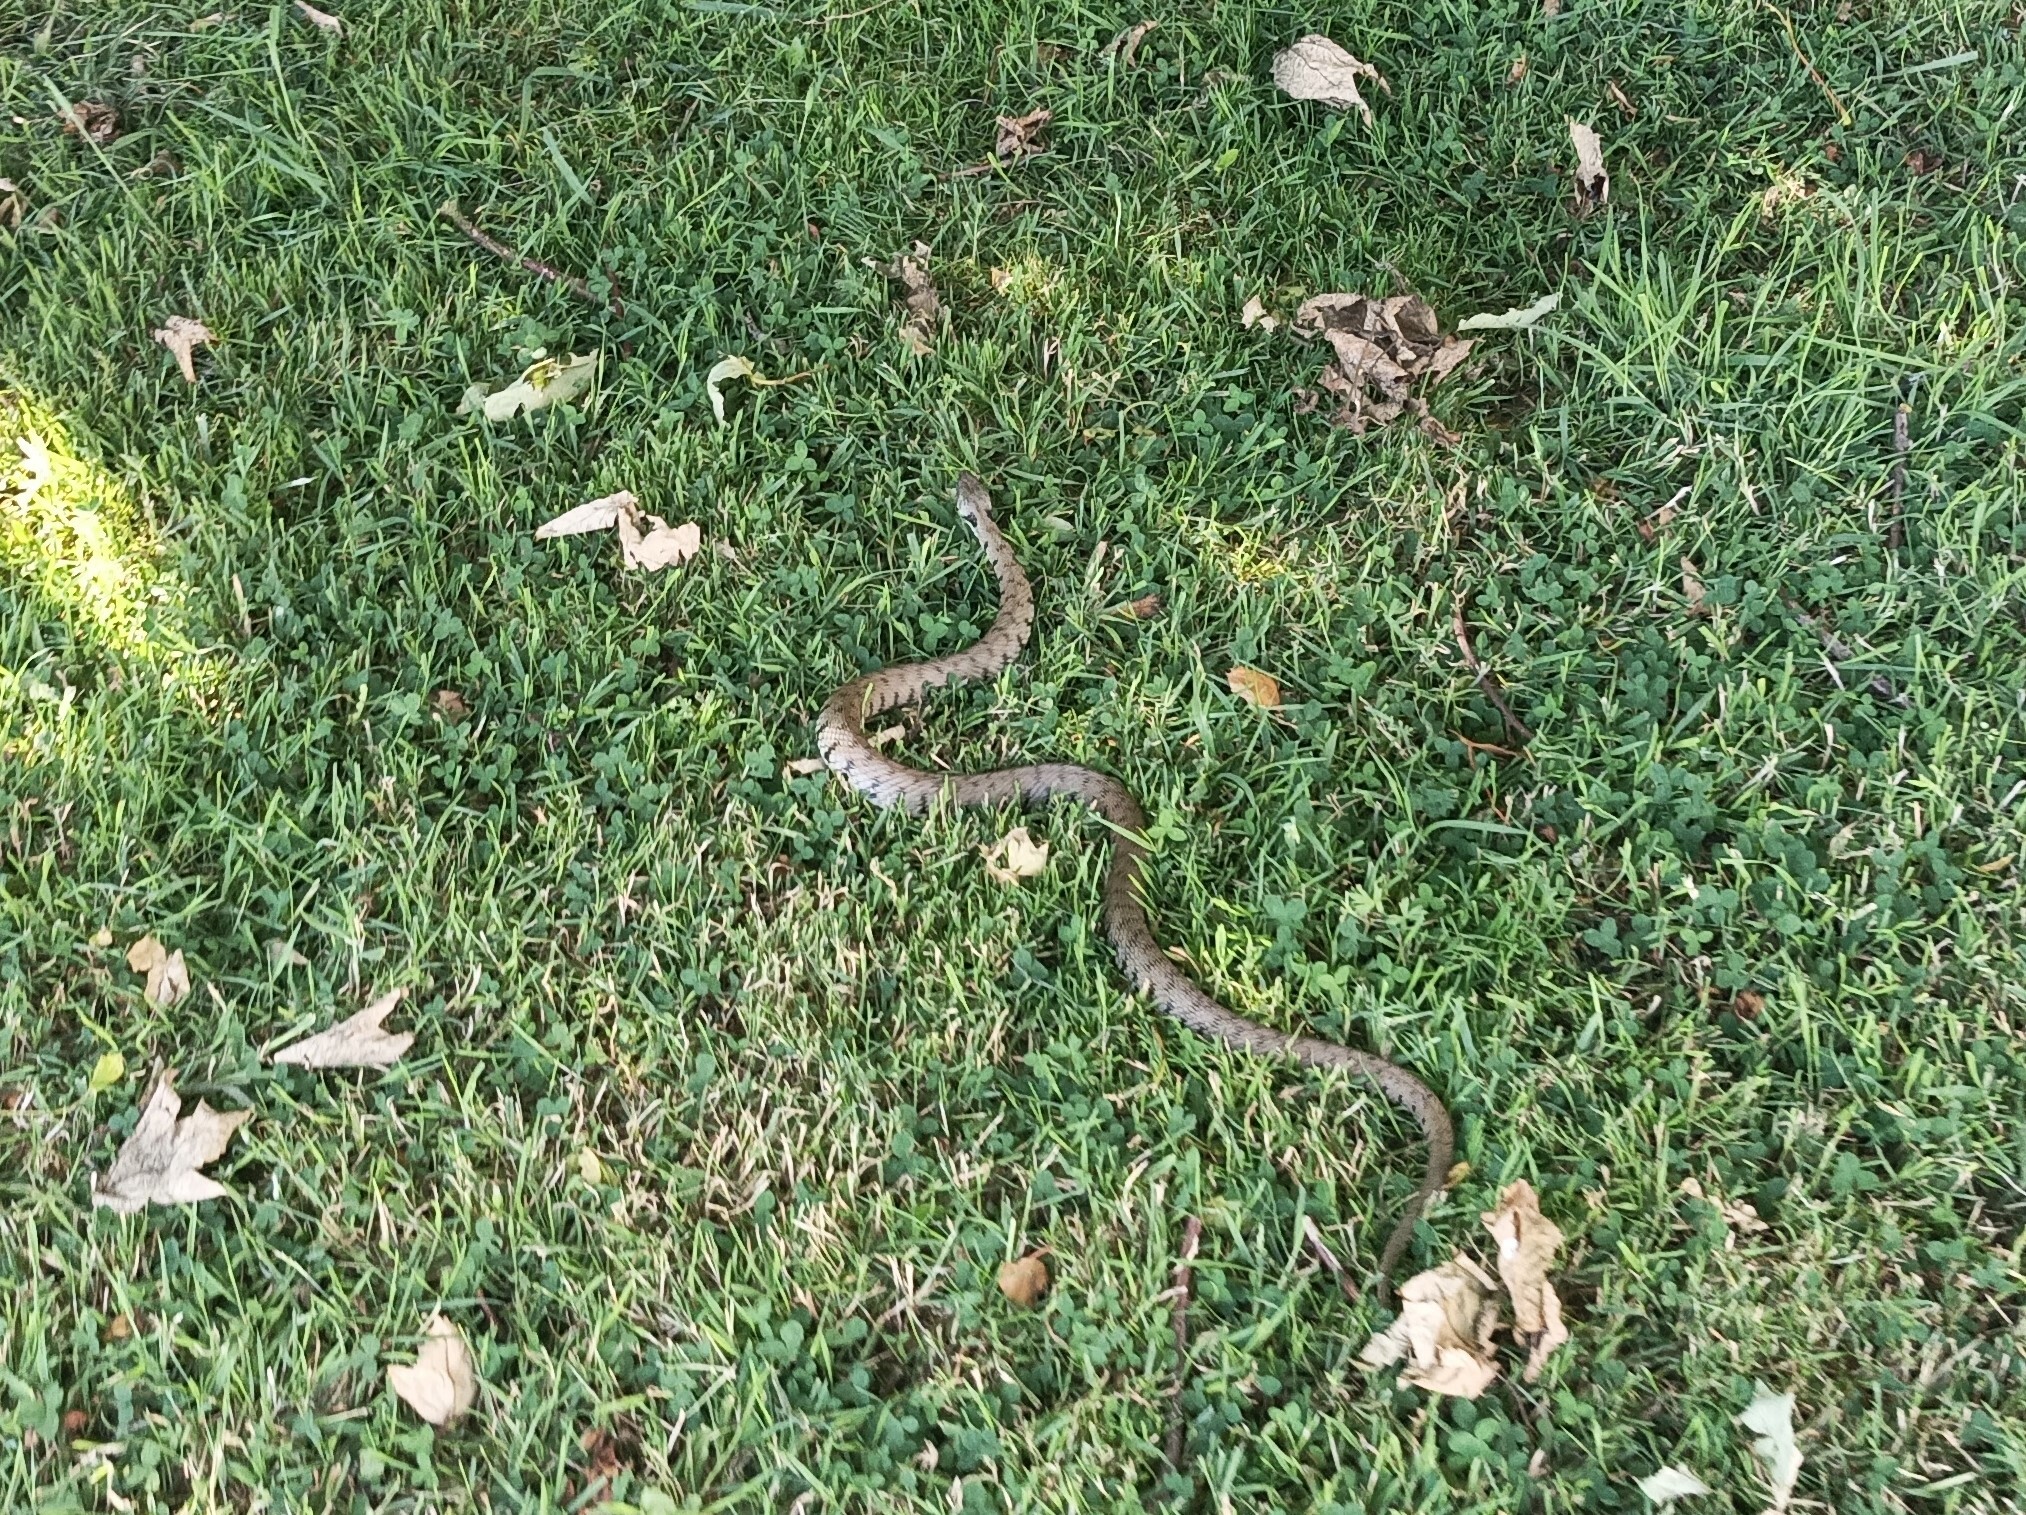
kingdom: Animalia
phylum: Chordata
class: Squamata
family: Colubridae
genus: Natrix
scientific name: Natrix helvetica
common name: Banded grass snake
